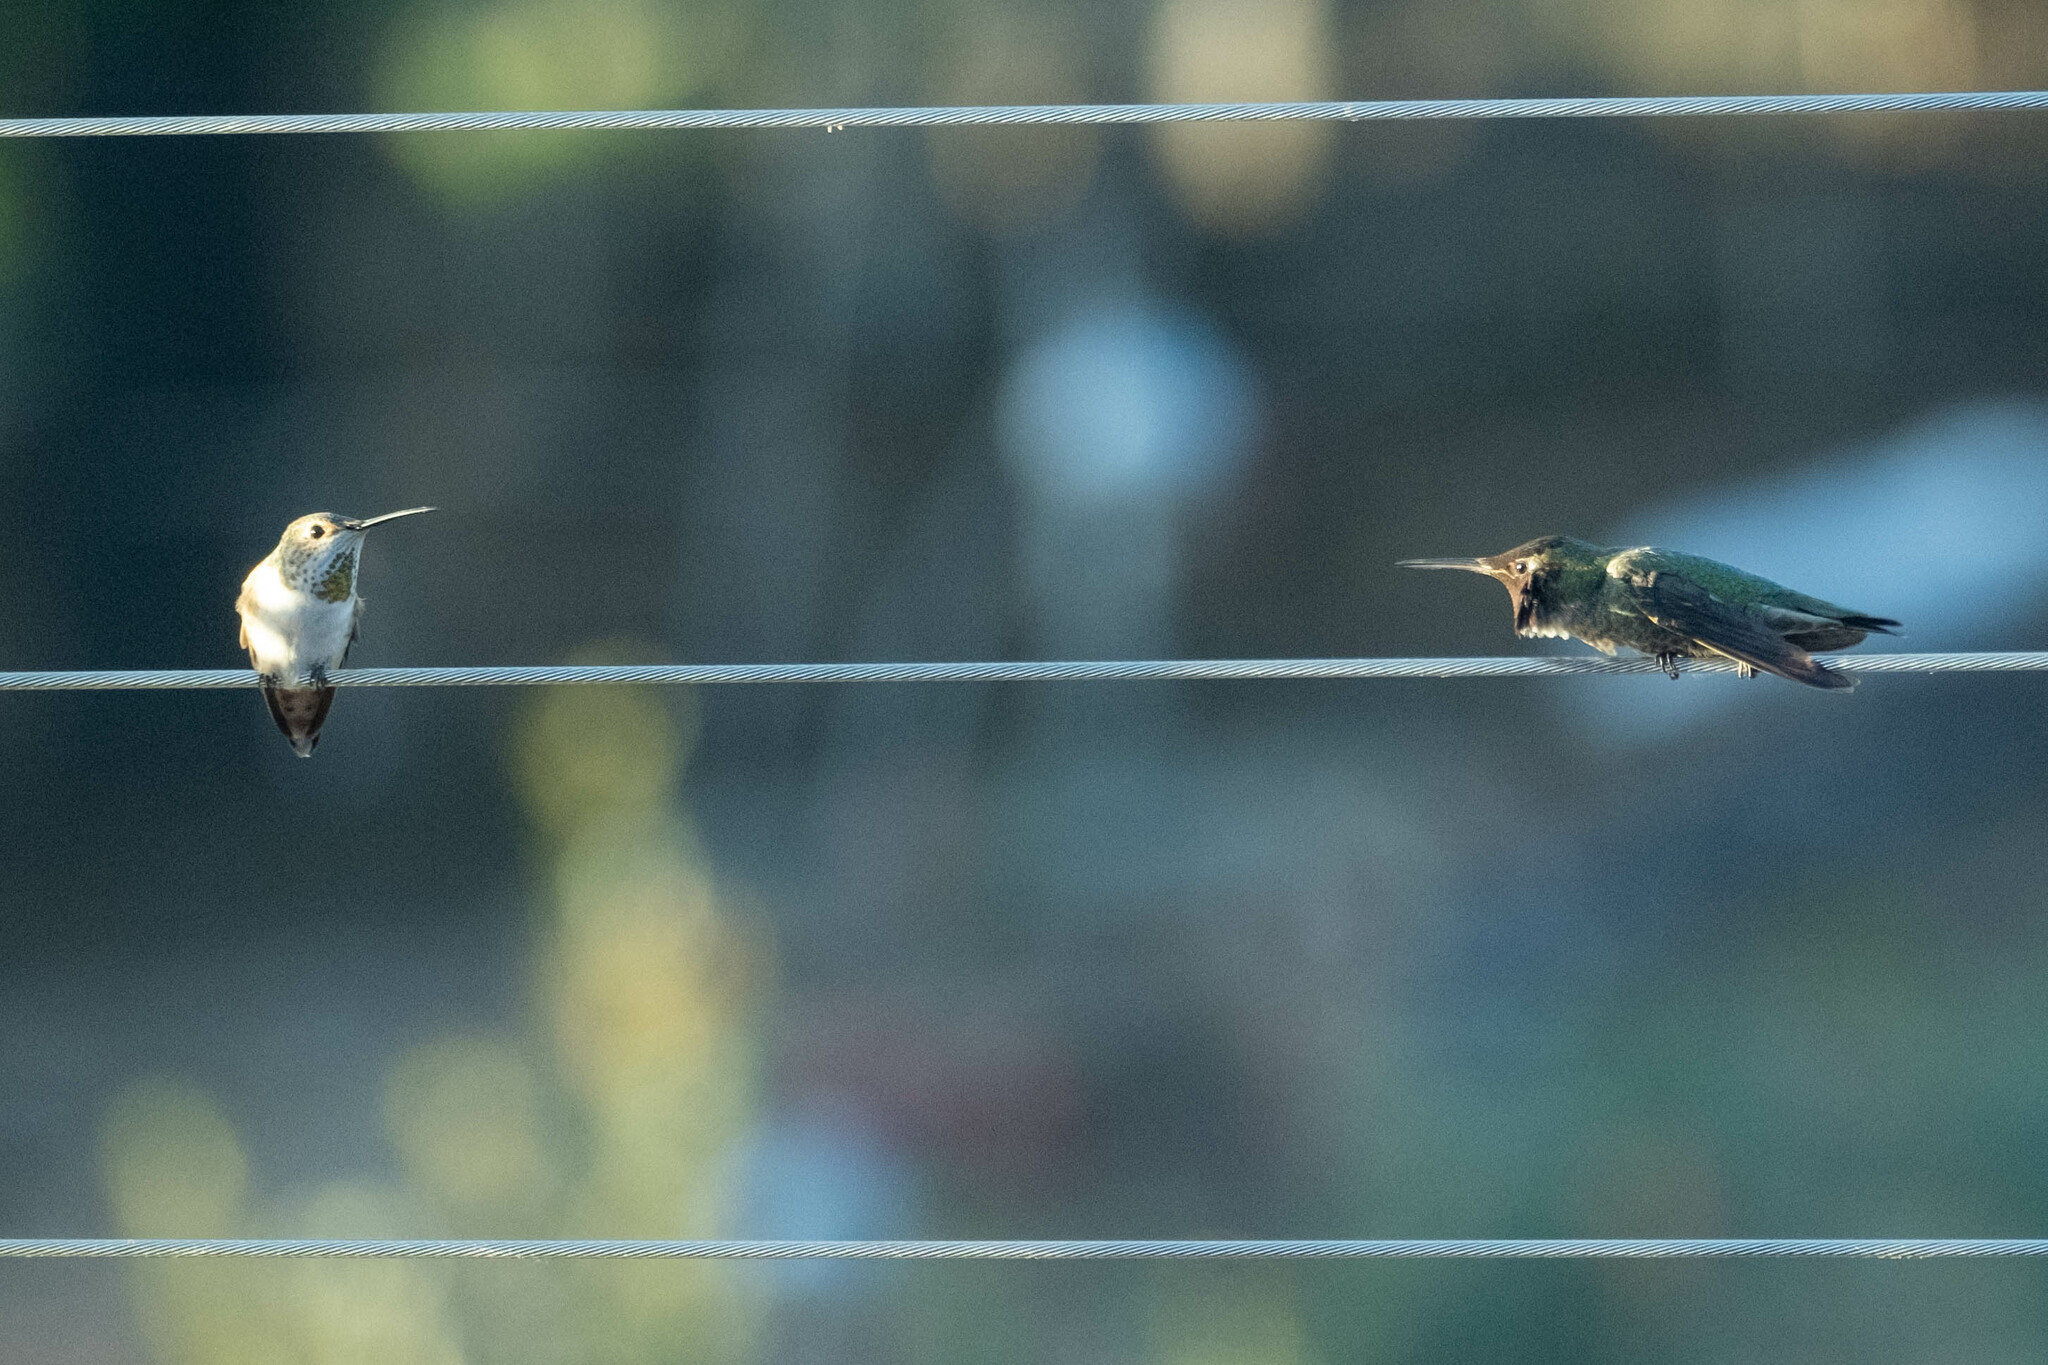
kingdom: Animalia
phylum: Chordata
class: Aves
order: Apodiformes
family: Trochilidae
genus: Calypte
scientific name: Calypte anna
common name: Anna's hummingbird
